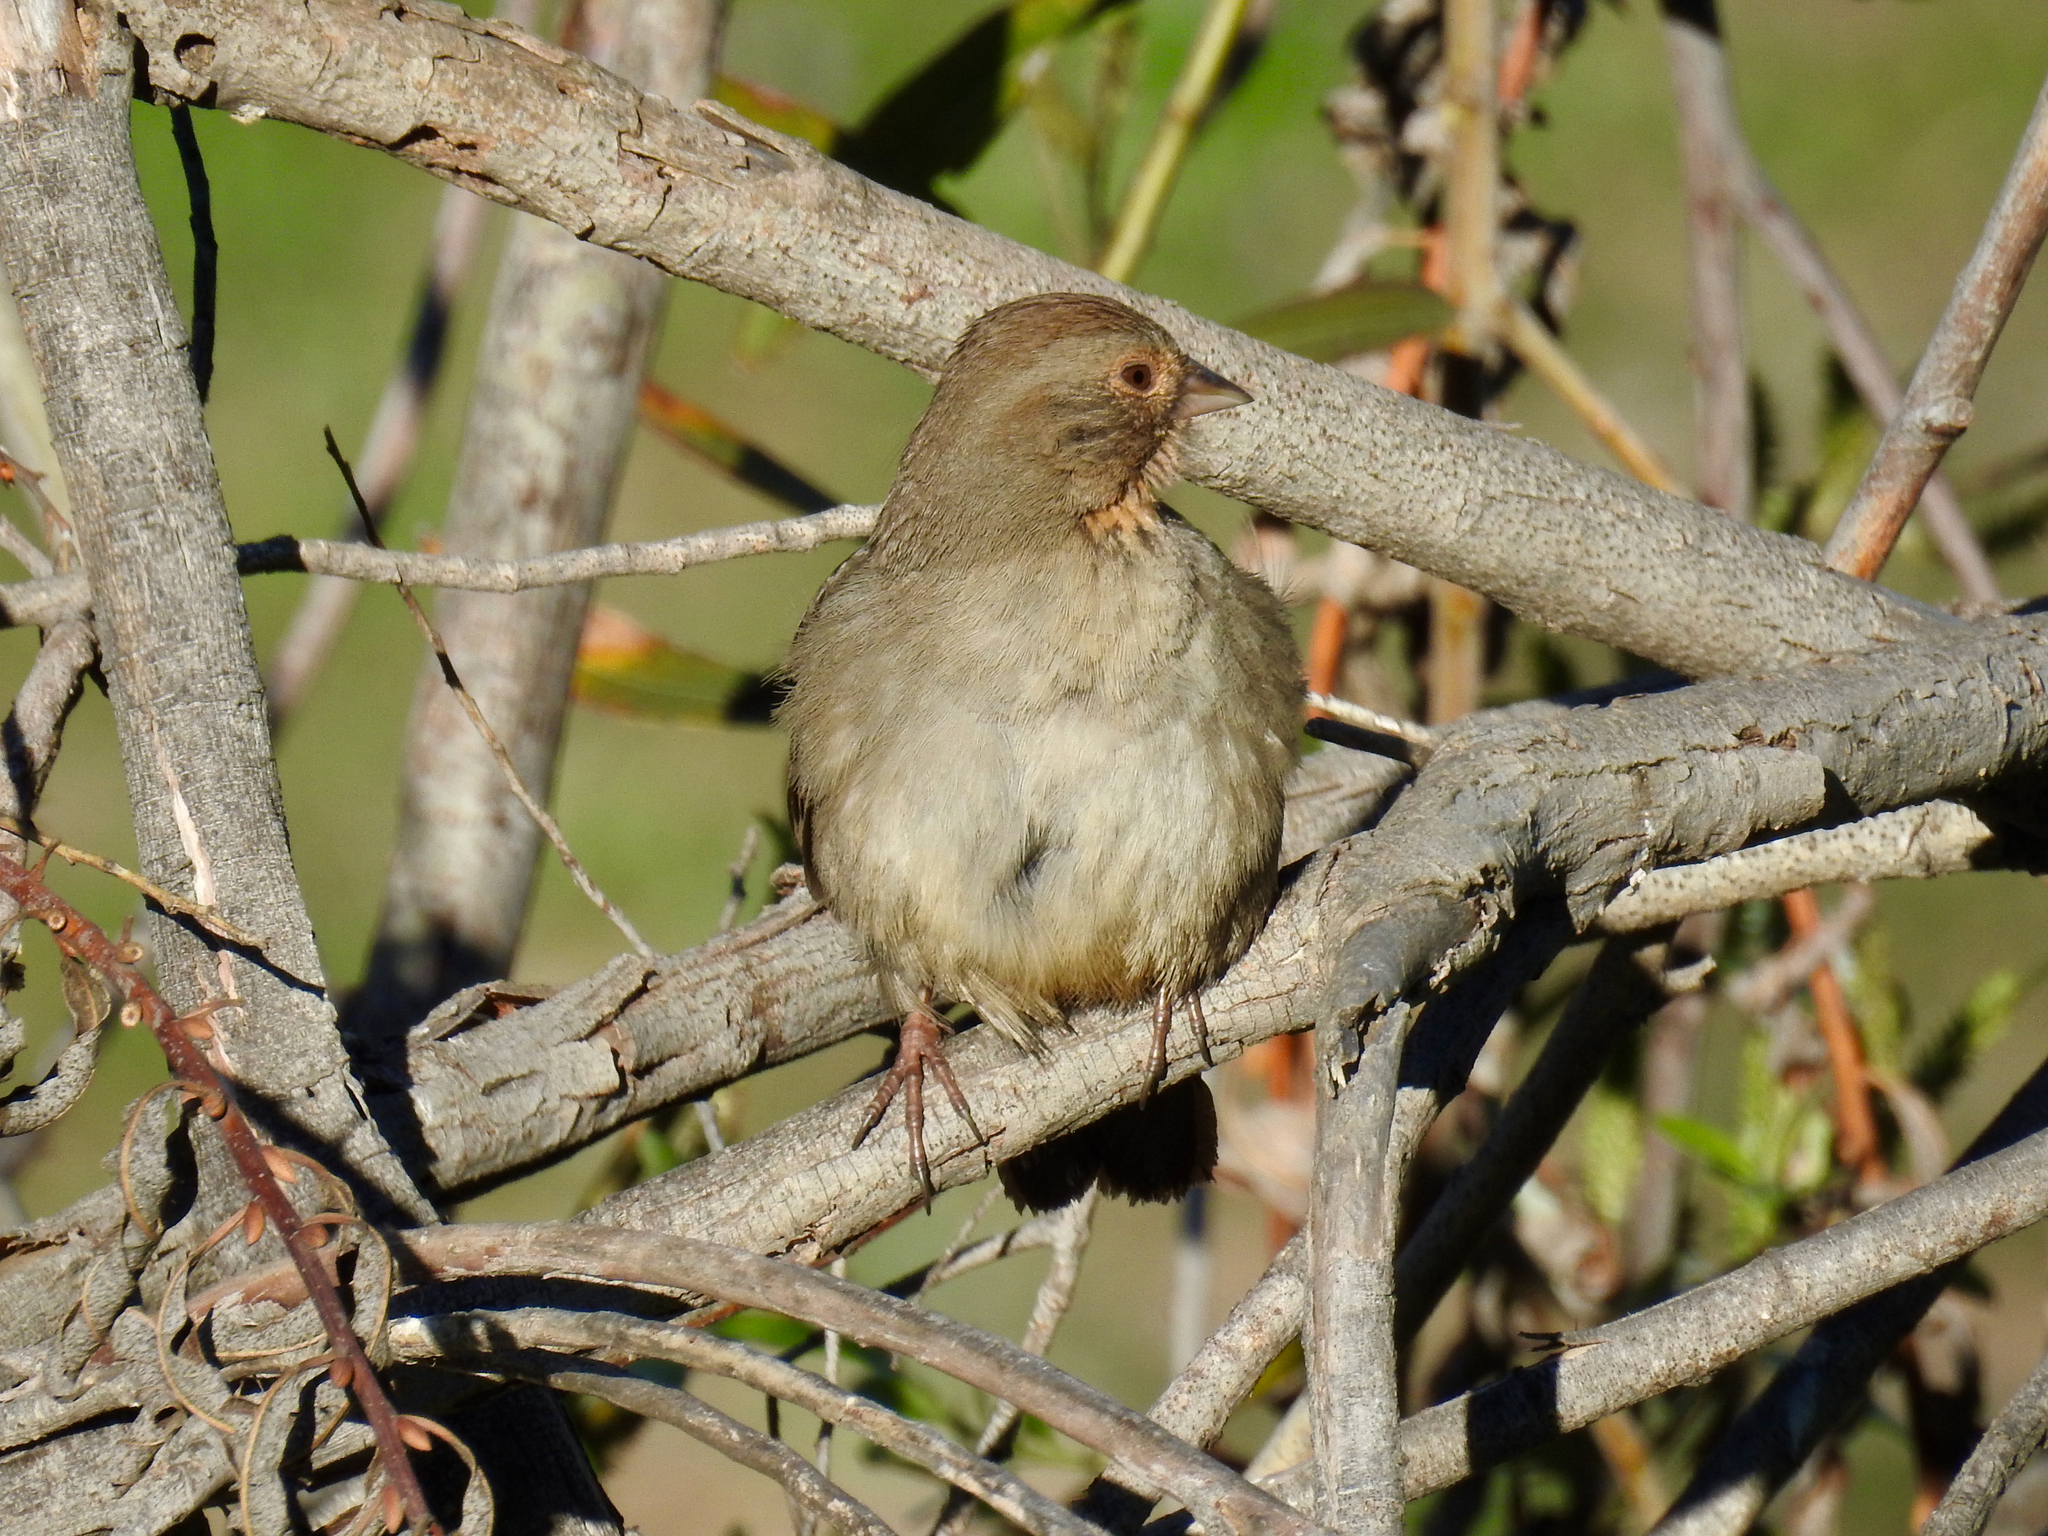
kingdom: Animalia
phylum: Chordata
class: Aves
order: Passeriformes
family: Passerellidae
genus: Melozone
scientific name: Melozone crissalis
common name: California towhee
